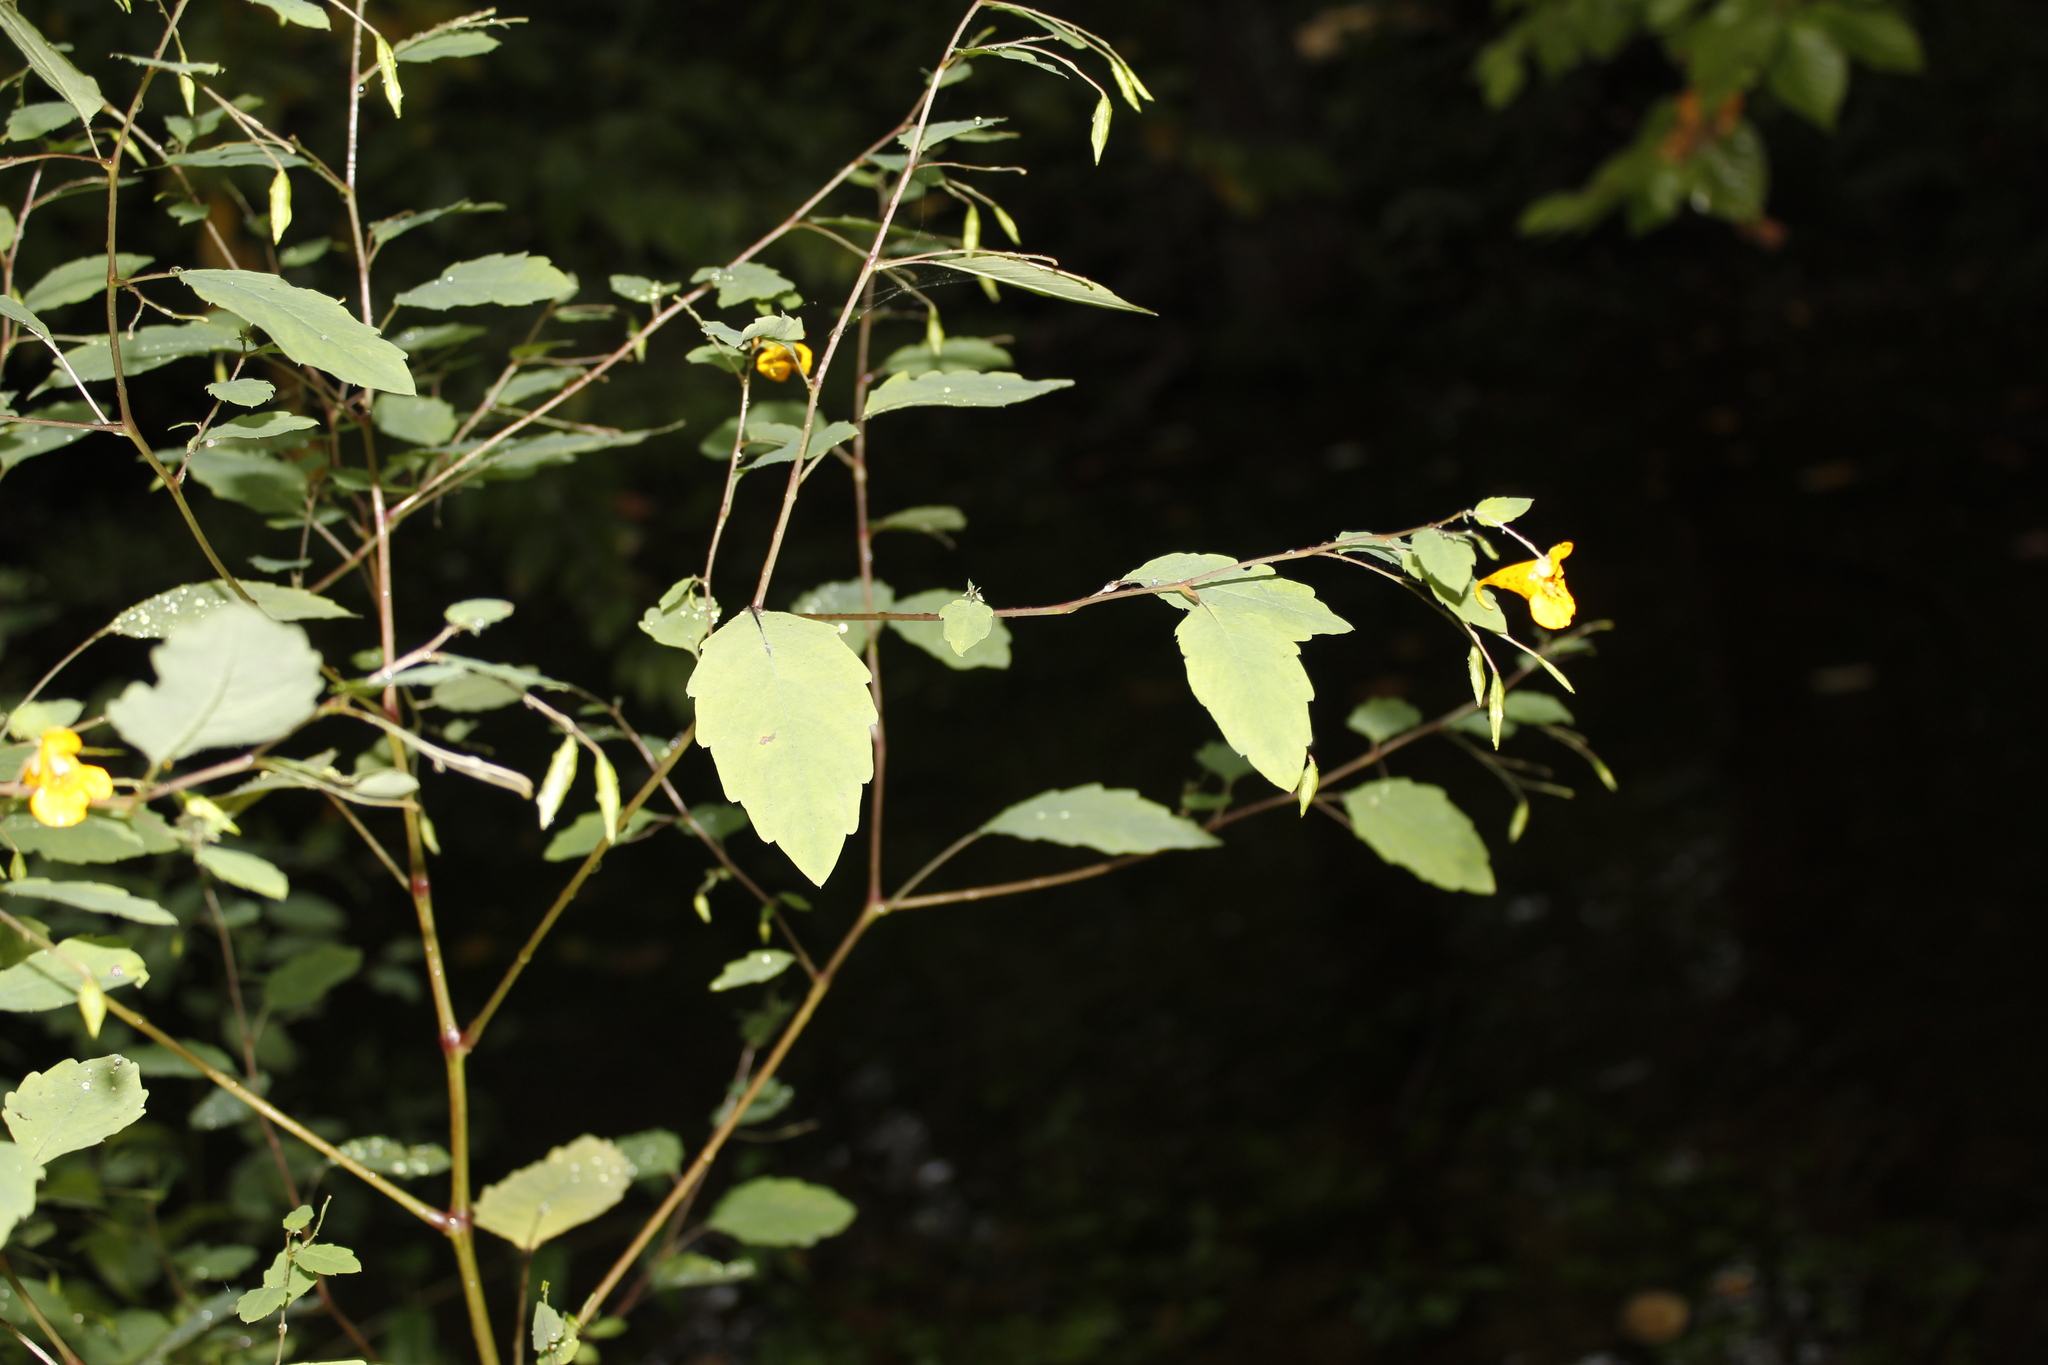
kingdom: Plantae
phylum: Tracheophyta
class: Magnoliopsida
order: Ericales
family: Balsaminaceae
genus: Impatiens
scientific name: Impatiens capensis
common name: Orange balsam
